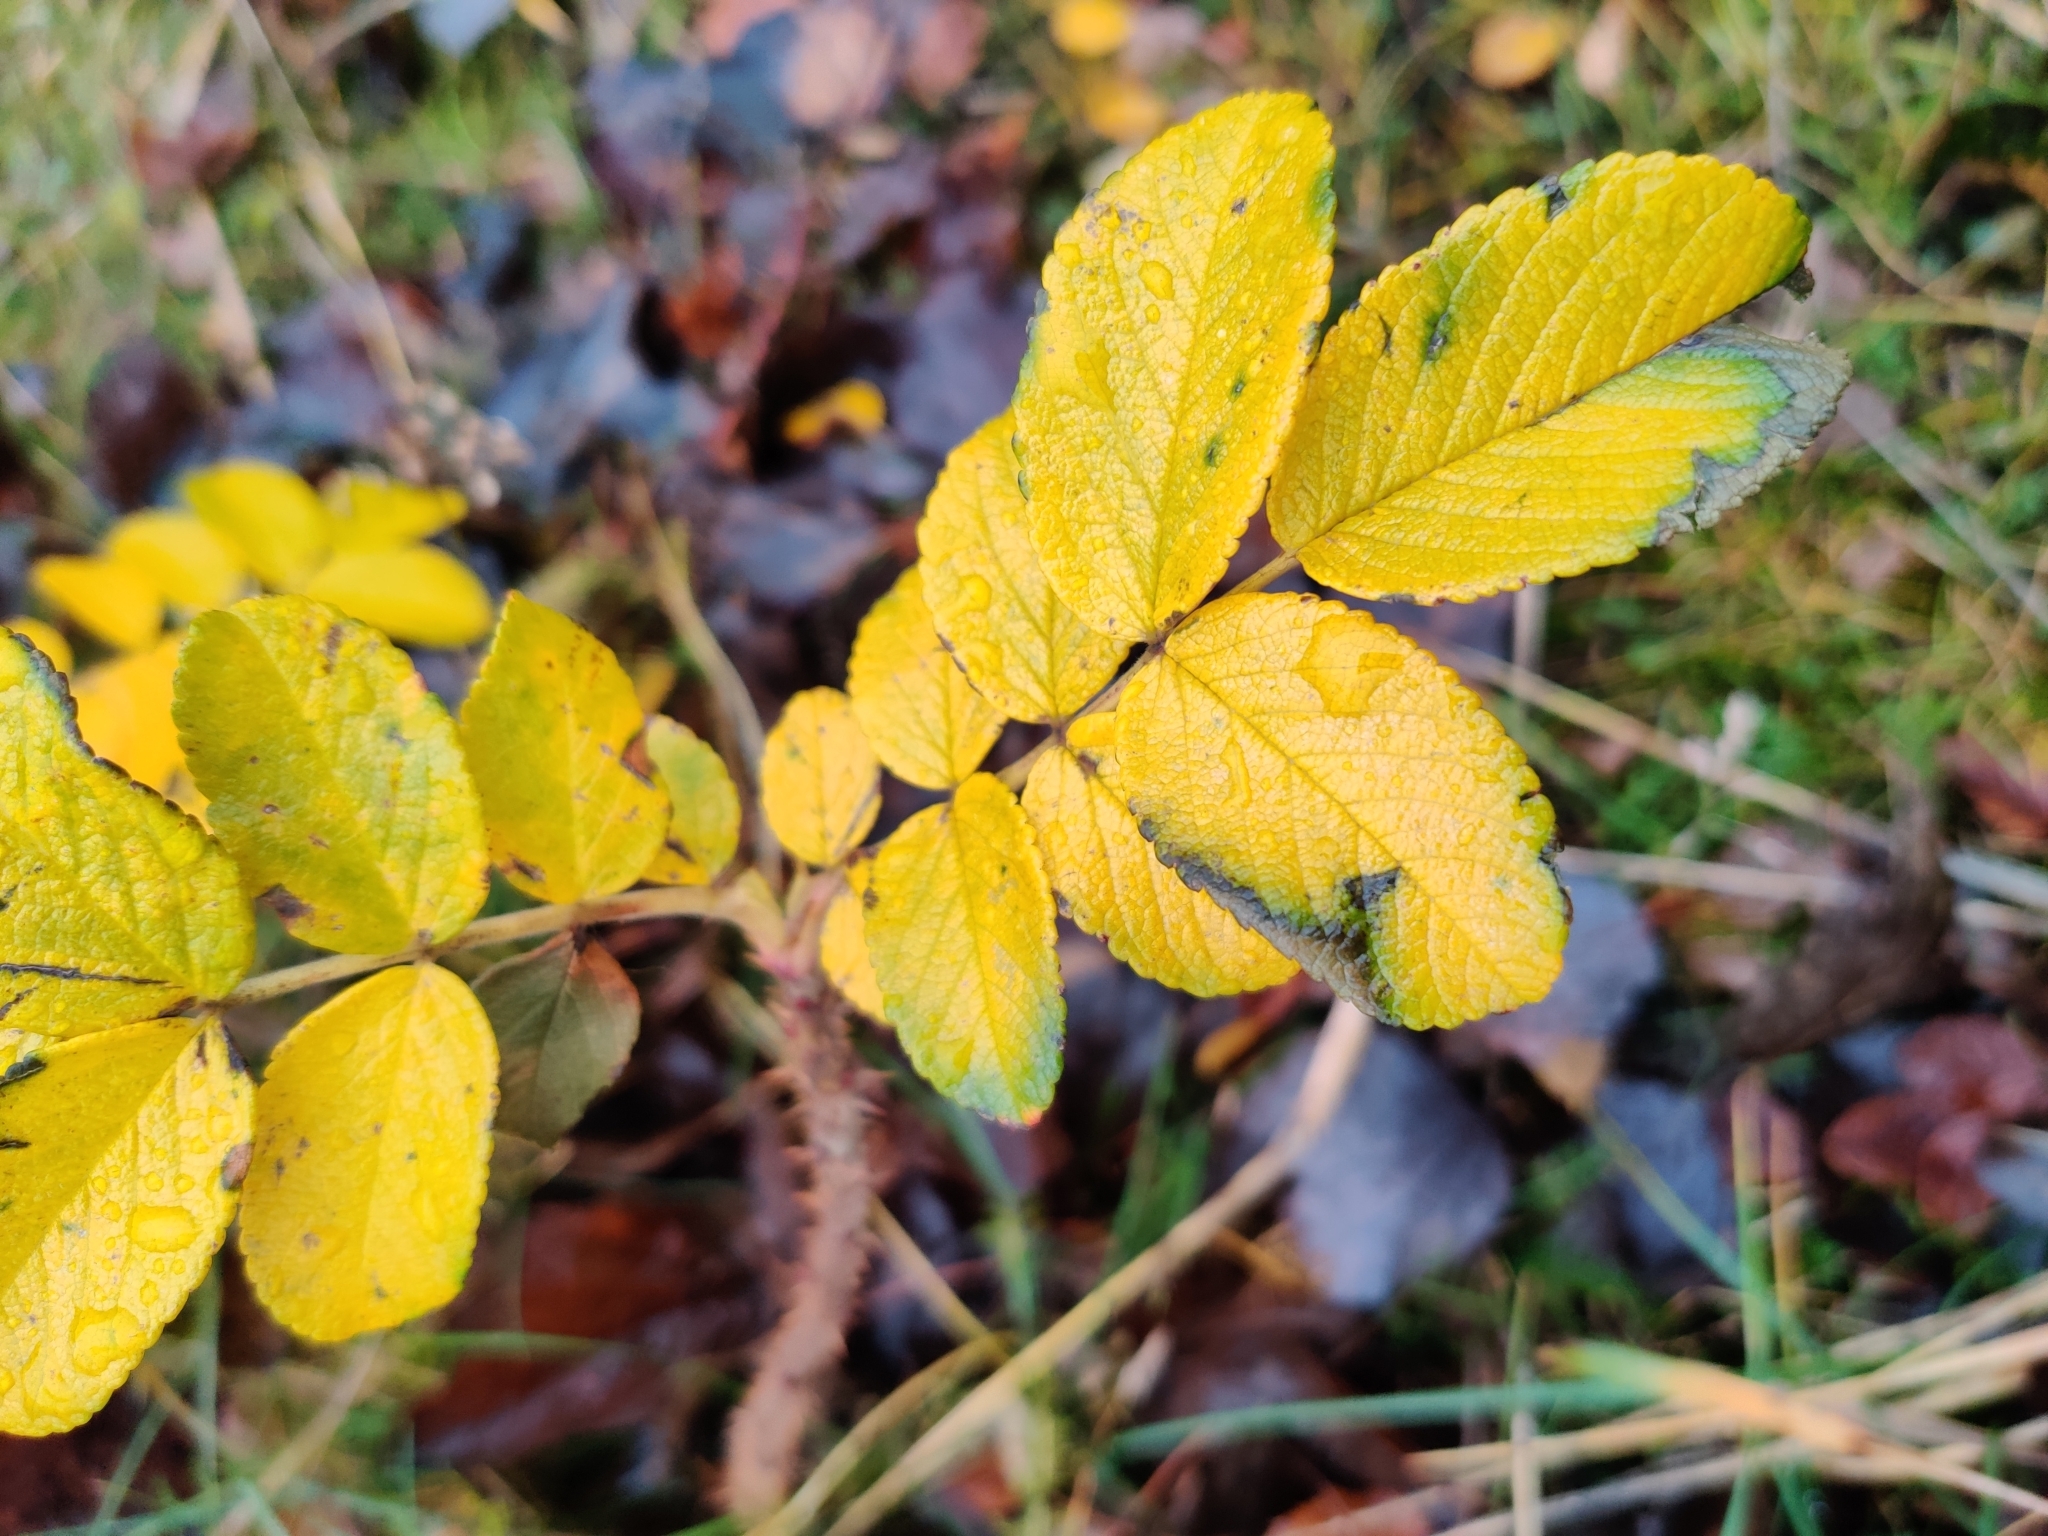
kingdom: Plantae
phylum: Tracheophyta
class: Magnoliopsida
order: Rosales
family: Rosaceae
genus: Rosa
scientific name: Rosa rugosa
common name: Japanese rose
